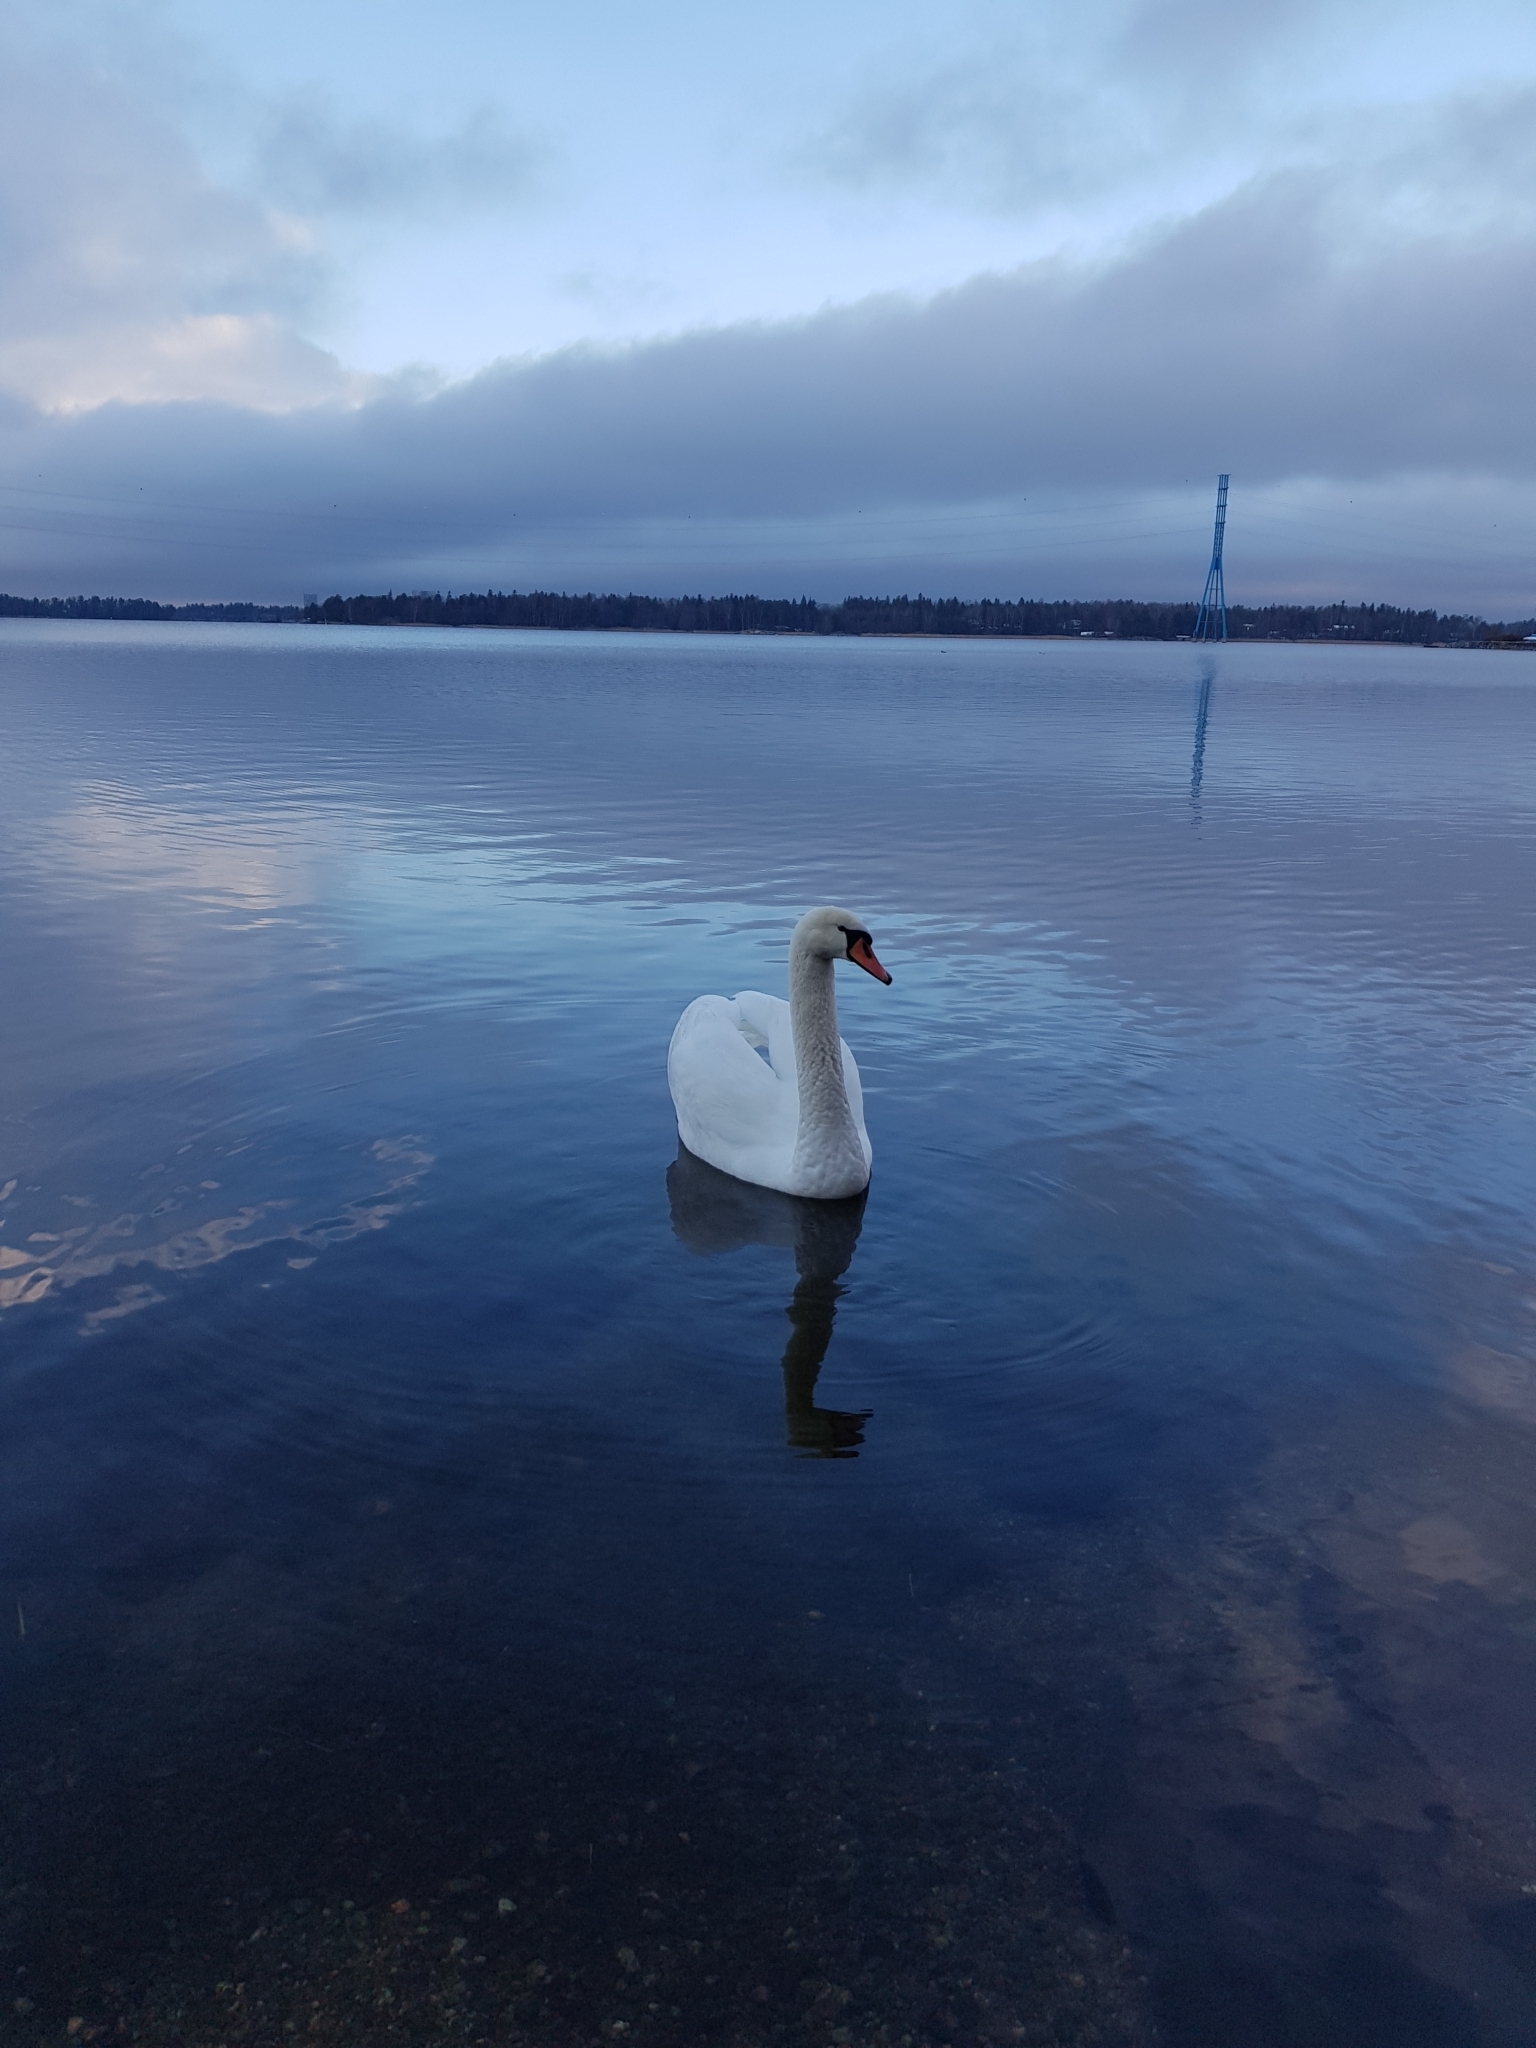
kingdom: Animalia
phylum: Chordata
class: Aves
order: Anseriformes
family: Anatidae
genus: Cygnus
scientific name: Cygnus olor
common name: Mute swan
